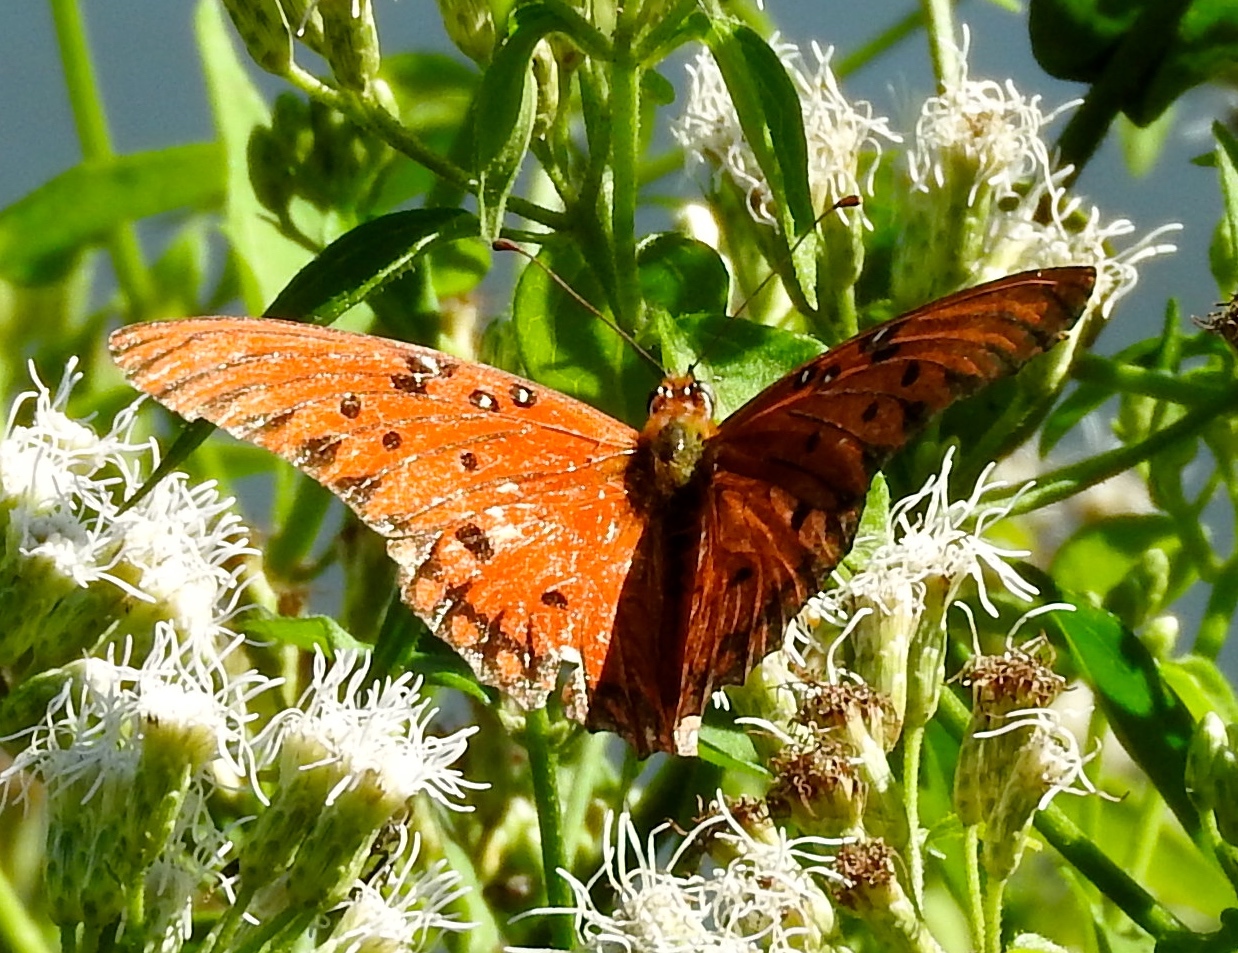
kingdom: Animalia
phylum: Arthropoda
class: Insecta
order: Lepidoptera
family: Nymphalidae
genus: Dione
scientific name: Dione vanillae
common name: Gulf fritillary
